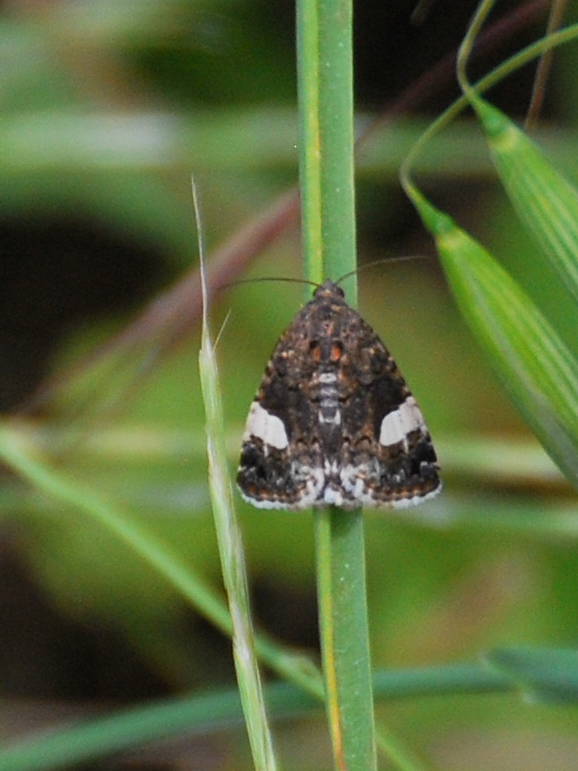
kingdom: Animalia
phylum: Arthropoda
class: Insecta
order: Lepidoptera
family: Erebidae
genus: Tyta
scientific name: Tyta luctuosa
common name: Four-spotted
